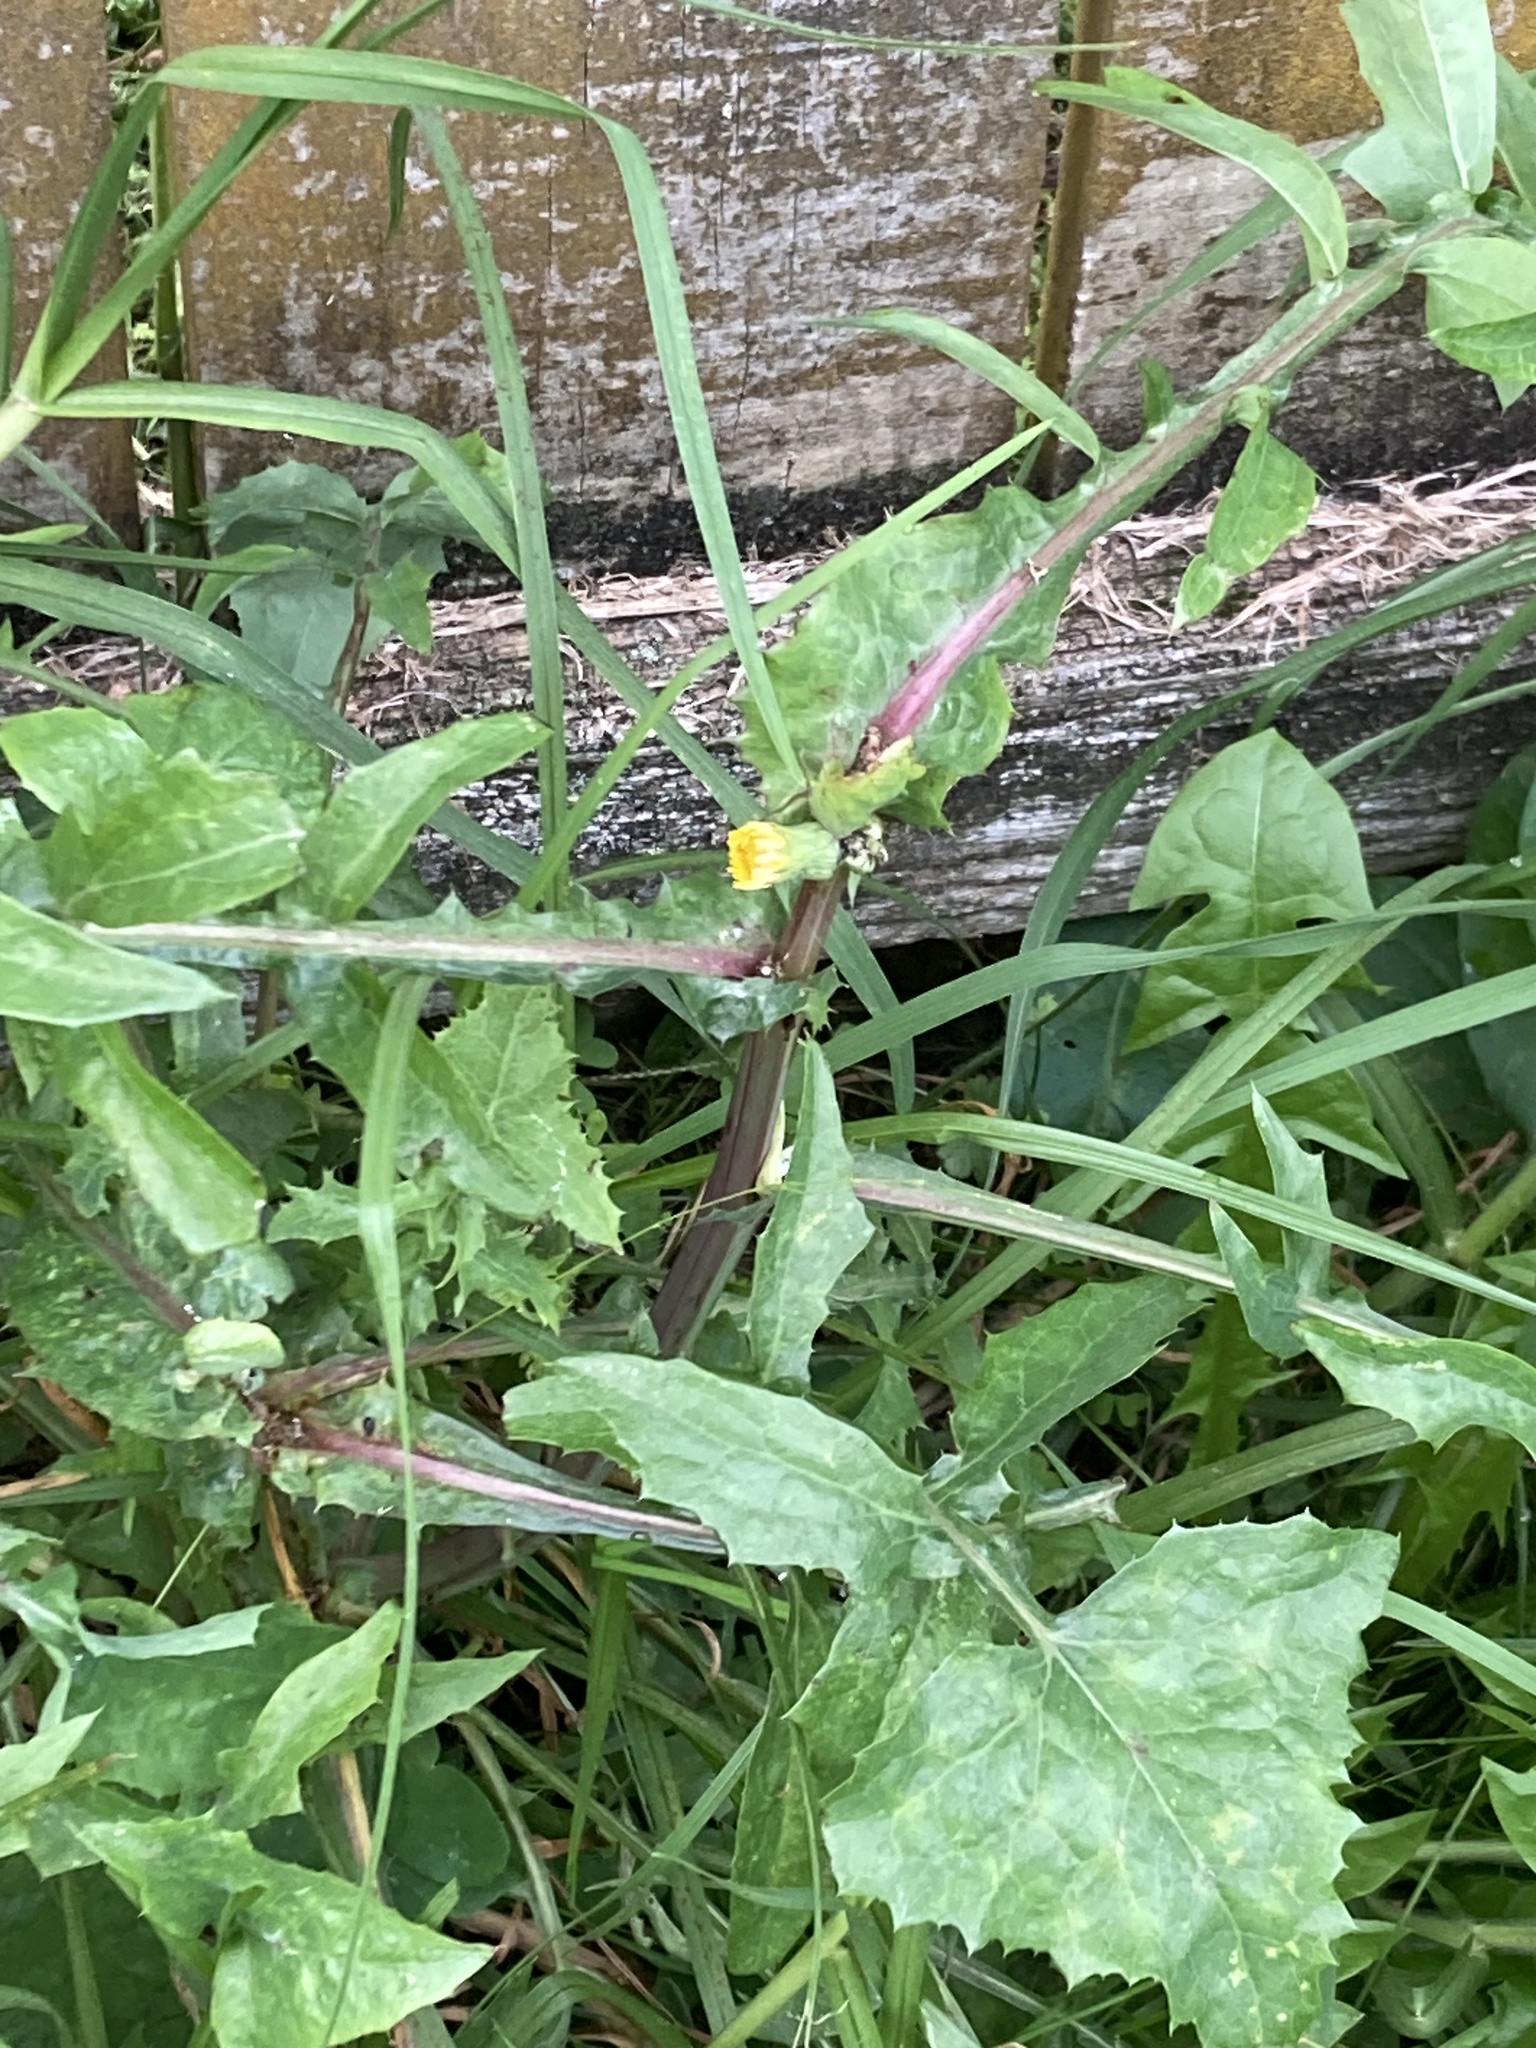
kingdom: Plantae
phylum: Tracheophyta
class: Magnoliopsida
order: Asterales
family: Asteraceae
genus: Sonchus
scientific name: Sonchus oleraceus
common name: Common sowthistle
